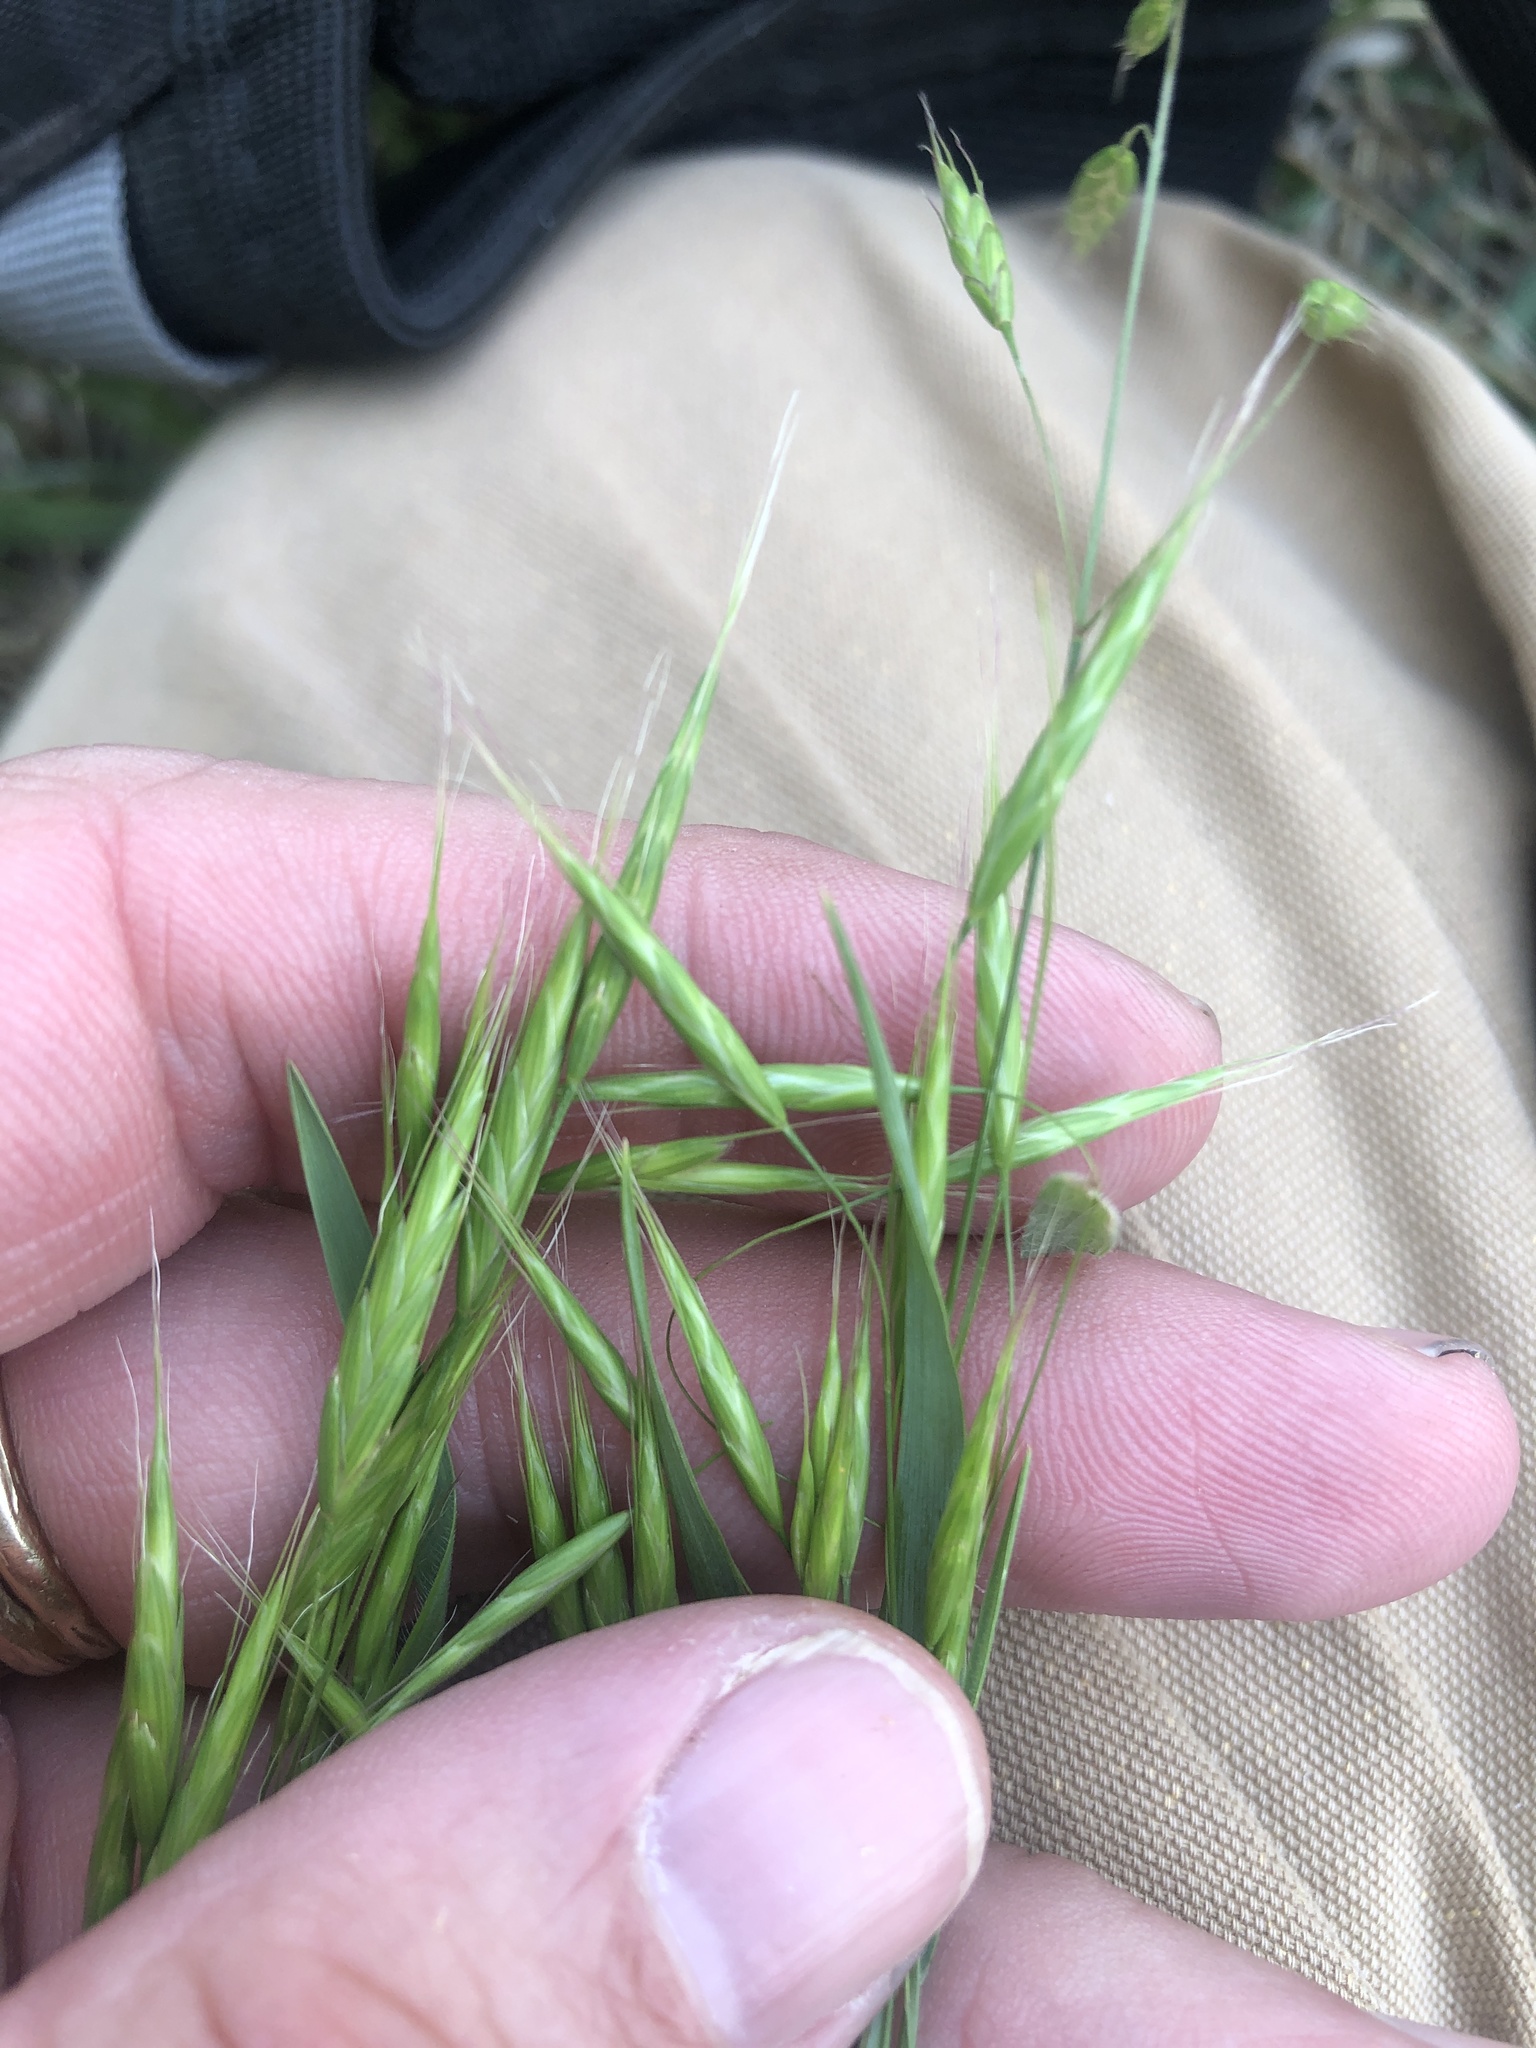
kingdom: Plantae
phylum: Tracheophyta
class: Liliopsida
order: Poales
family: Poaceae
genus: Bromus
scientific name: Bromus japonicus
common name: Japanese brome
